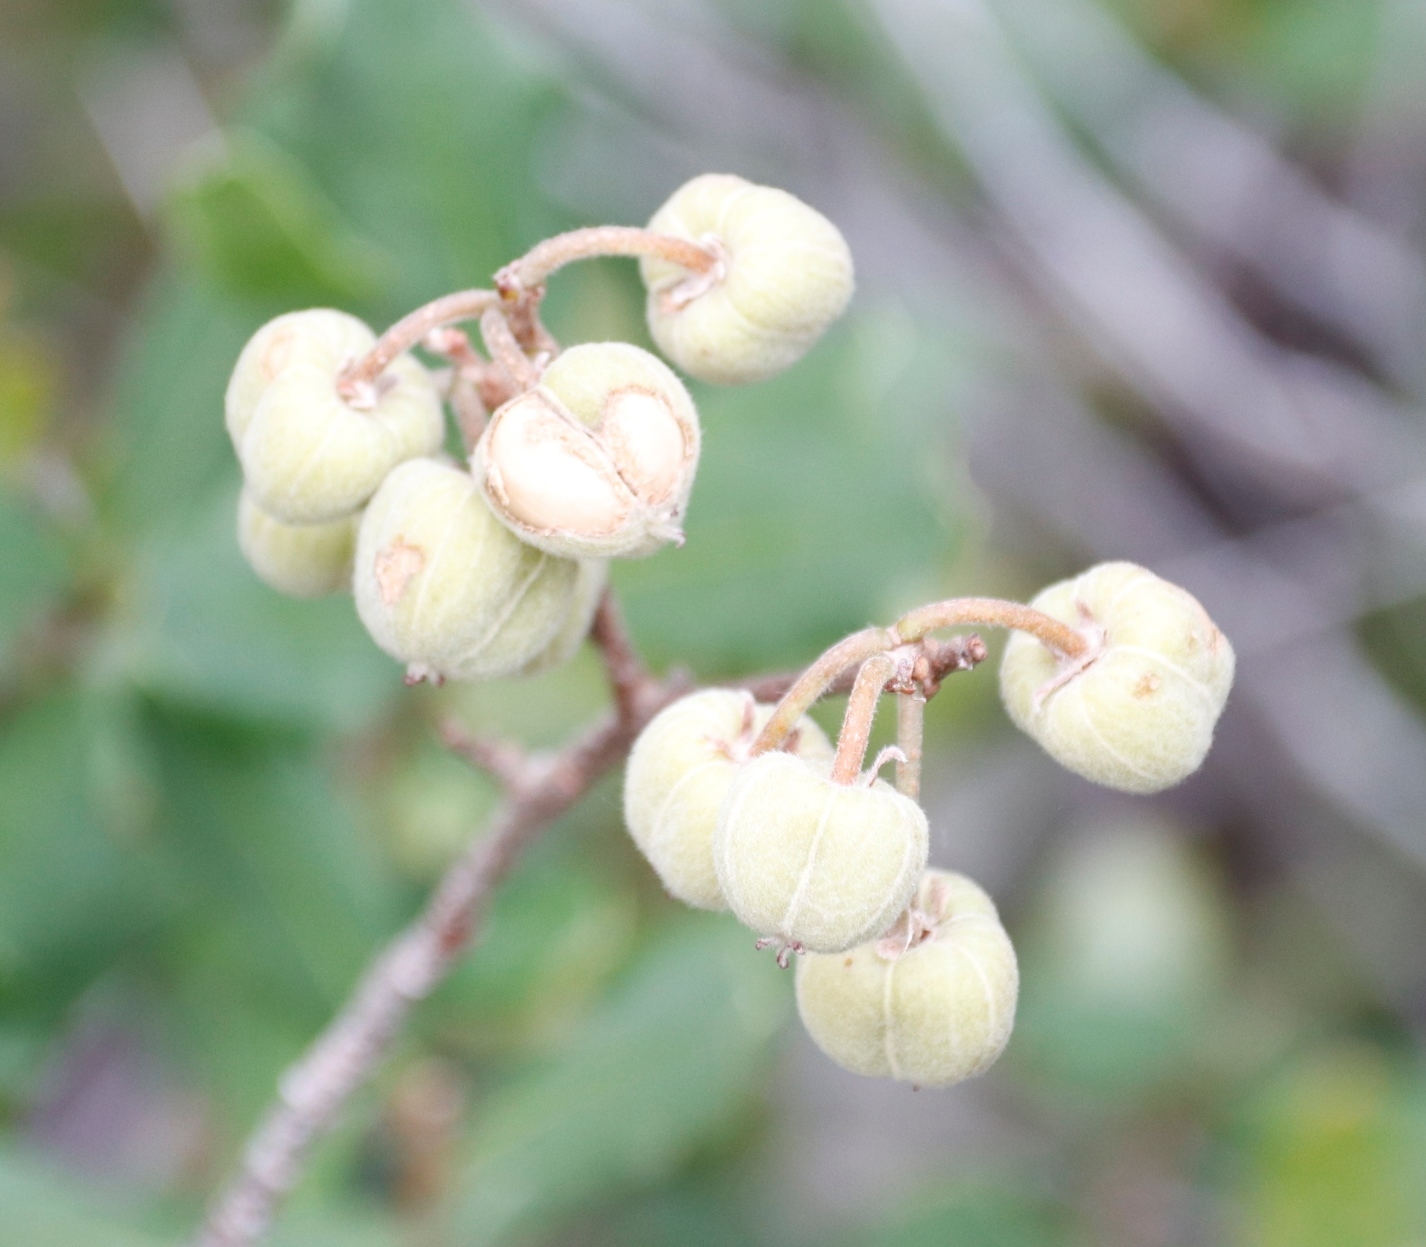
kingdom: Plantae
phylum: Tracheophyta
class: Magnoliopsida
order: Malpighiales
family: Phyllanthaceae
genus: Lachnostylis
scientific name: Lachnostylis hirta
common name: Coalwood
